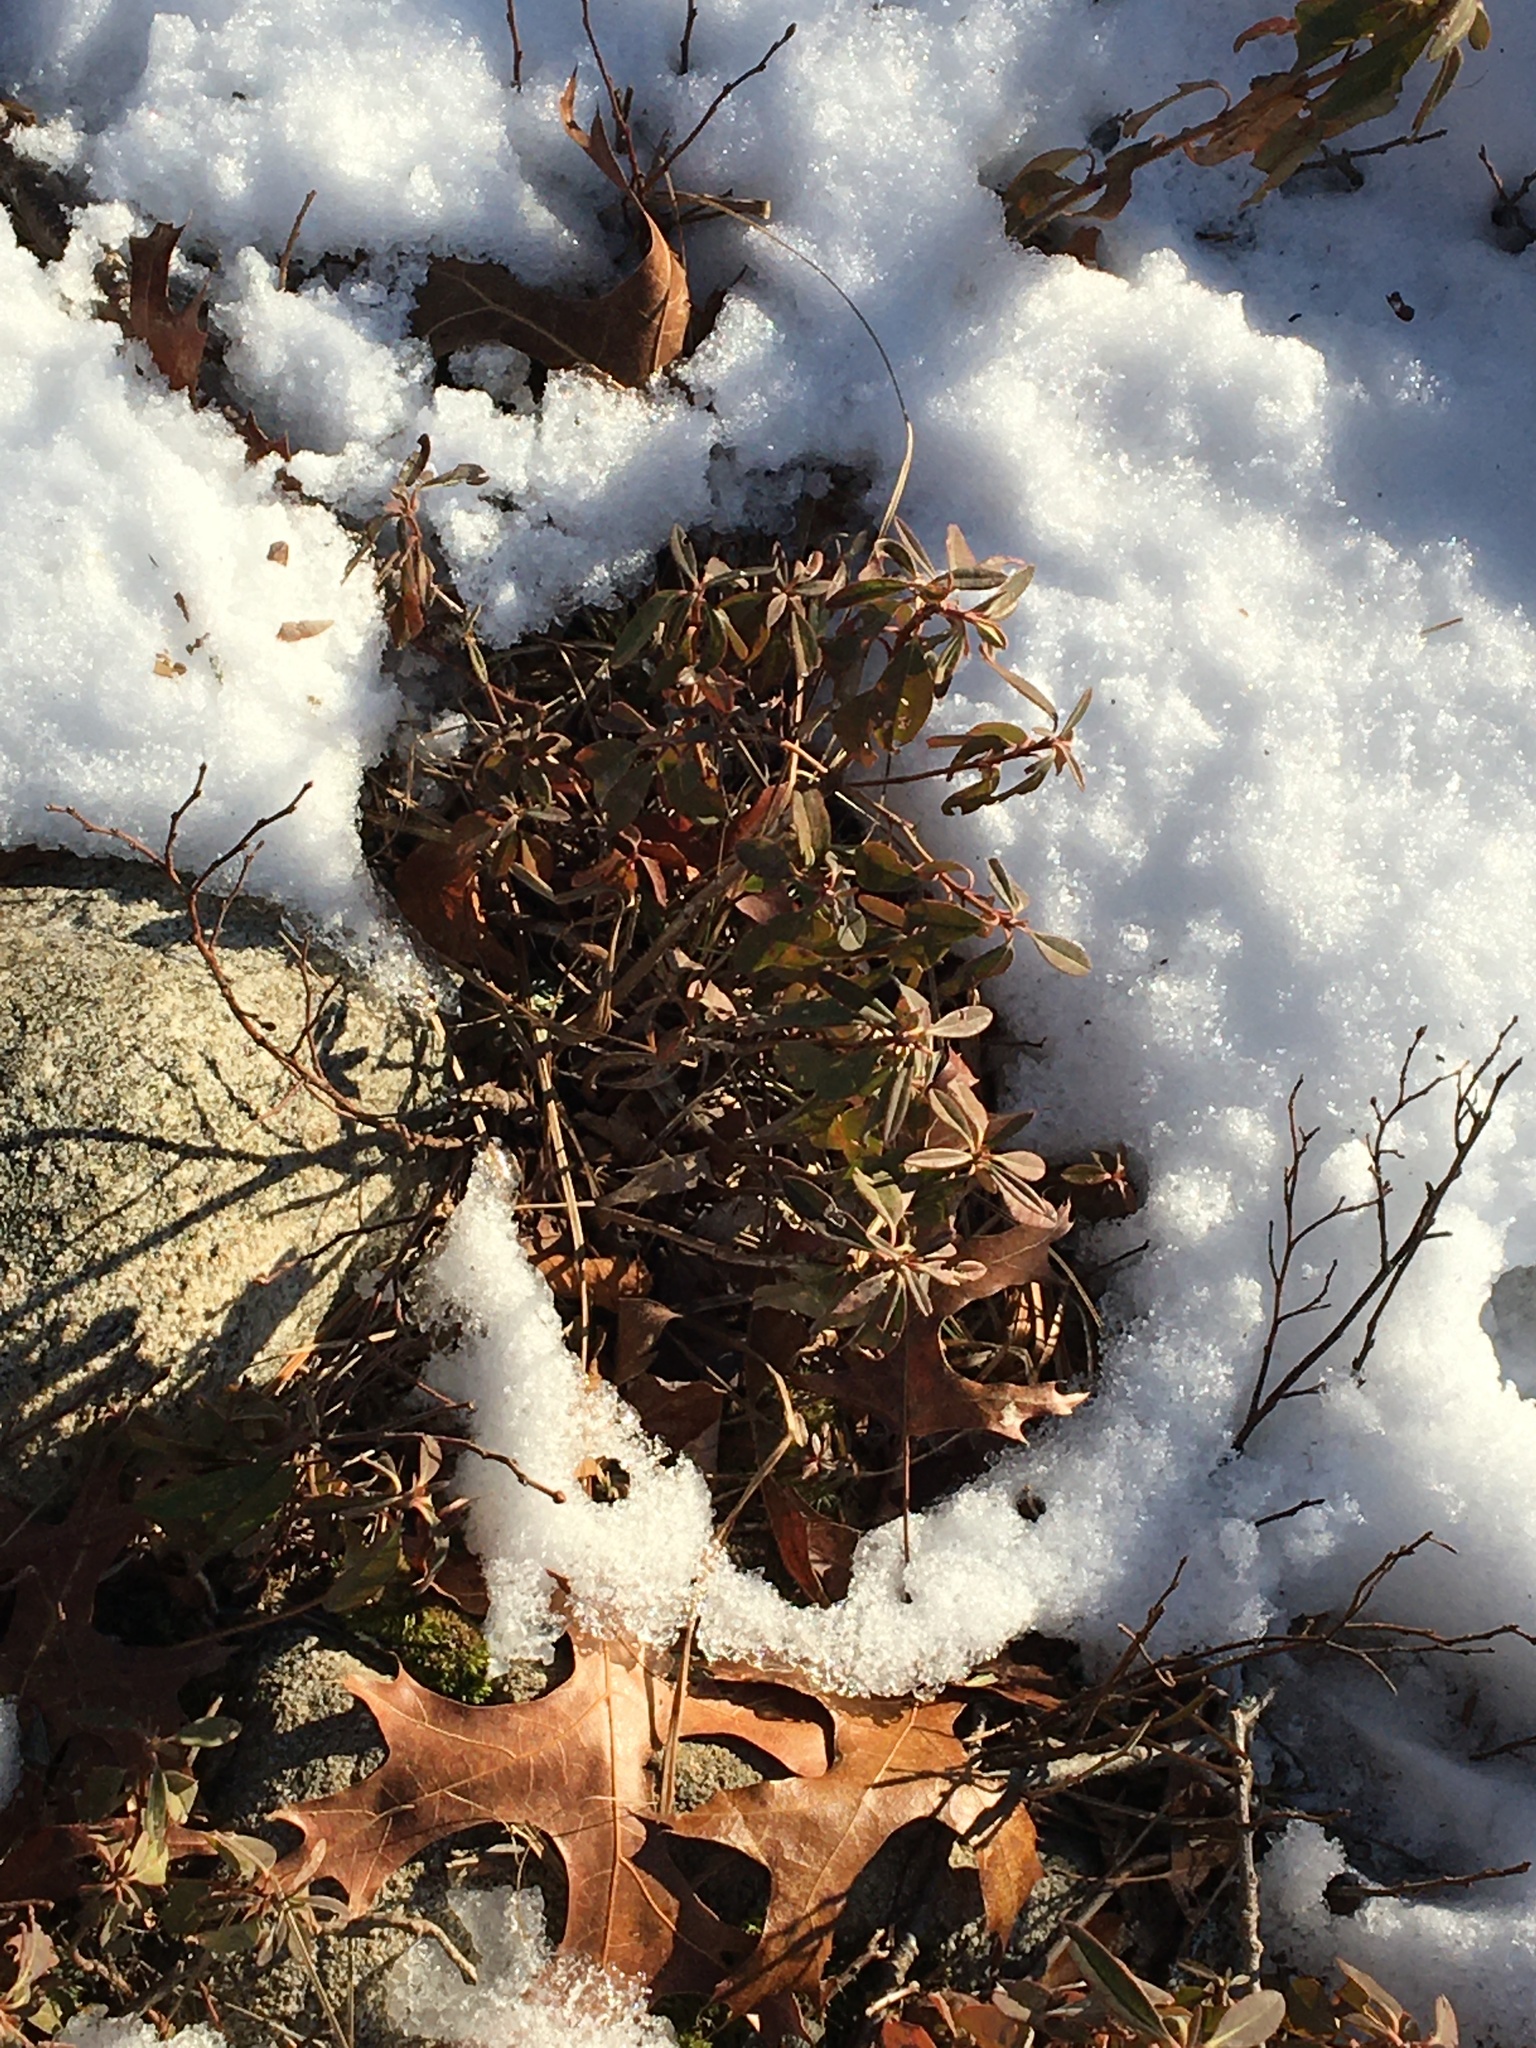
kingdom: Plantae
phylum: Tracheophyta
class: Magnoliopsida
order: Ericales
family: Ericaceae
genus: Kalmia
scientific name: Kalmia angustifolia
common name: Sheep-laurel
